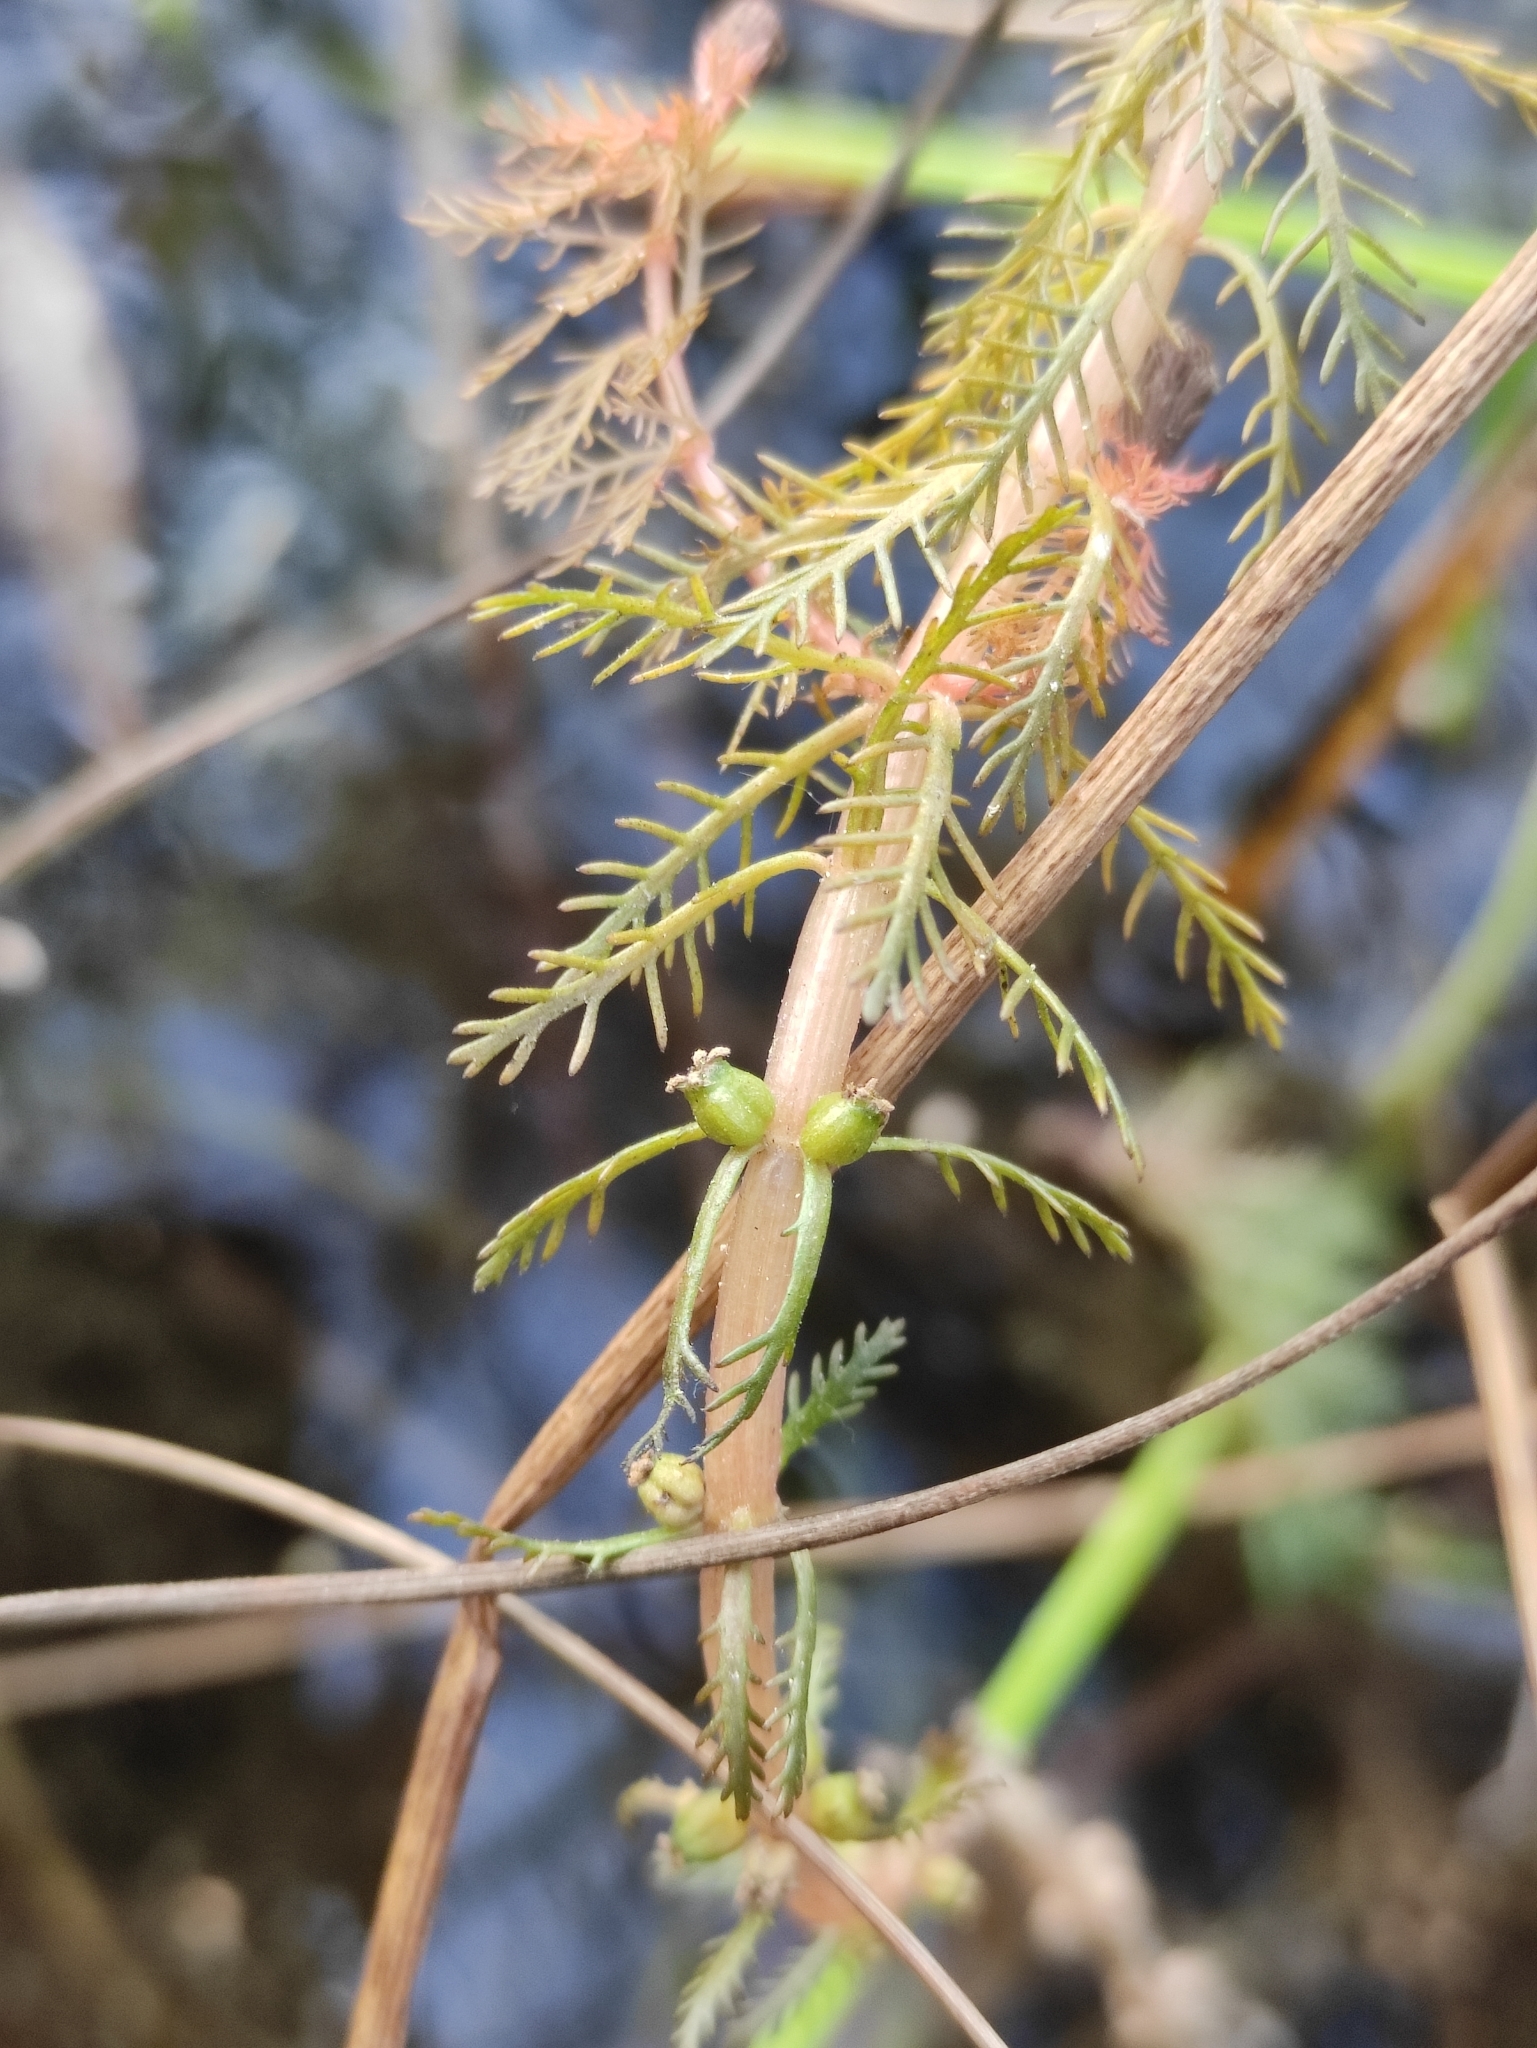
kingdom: Plantae
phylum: Tracheophyta
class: Magnoliopsida
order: Saxifragales
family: Haloragaceae
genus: Myriophyllum
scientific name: Myriophyllum verticillatum
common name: Whorled water-milfoil
